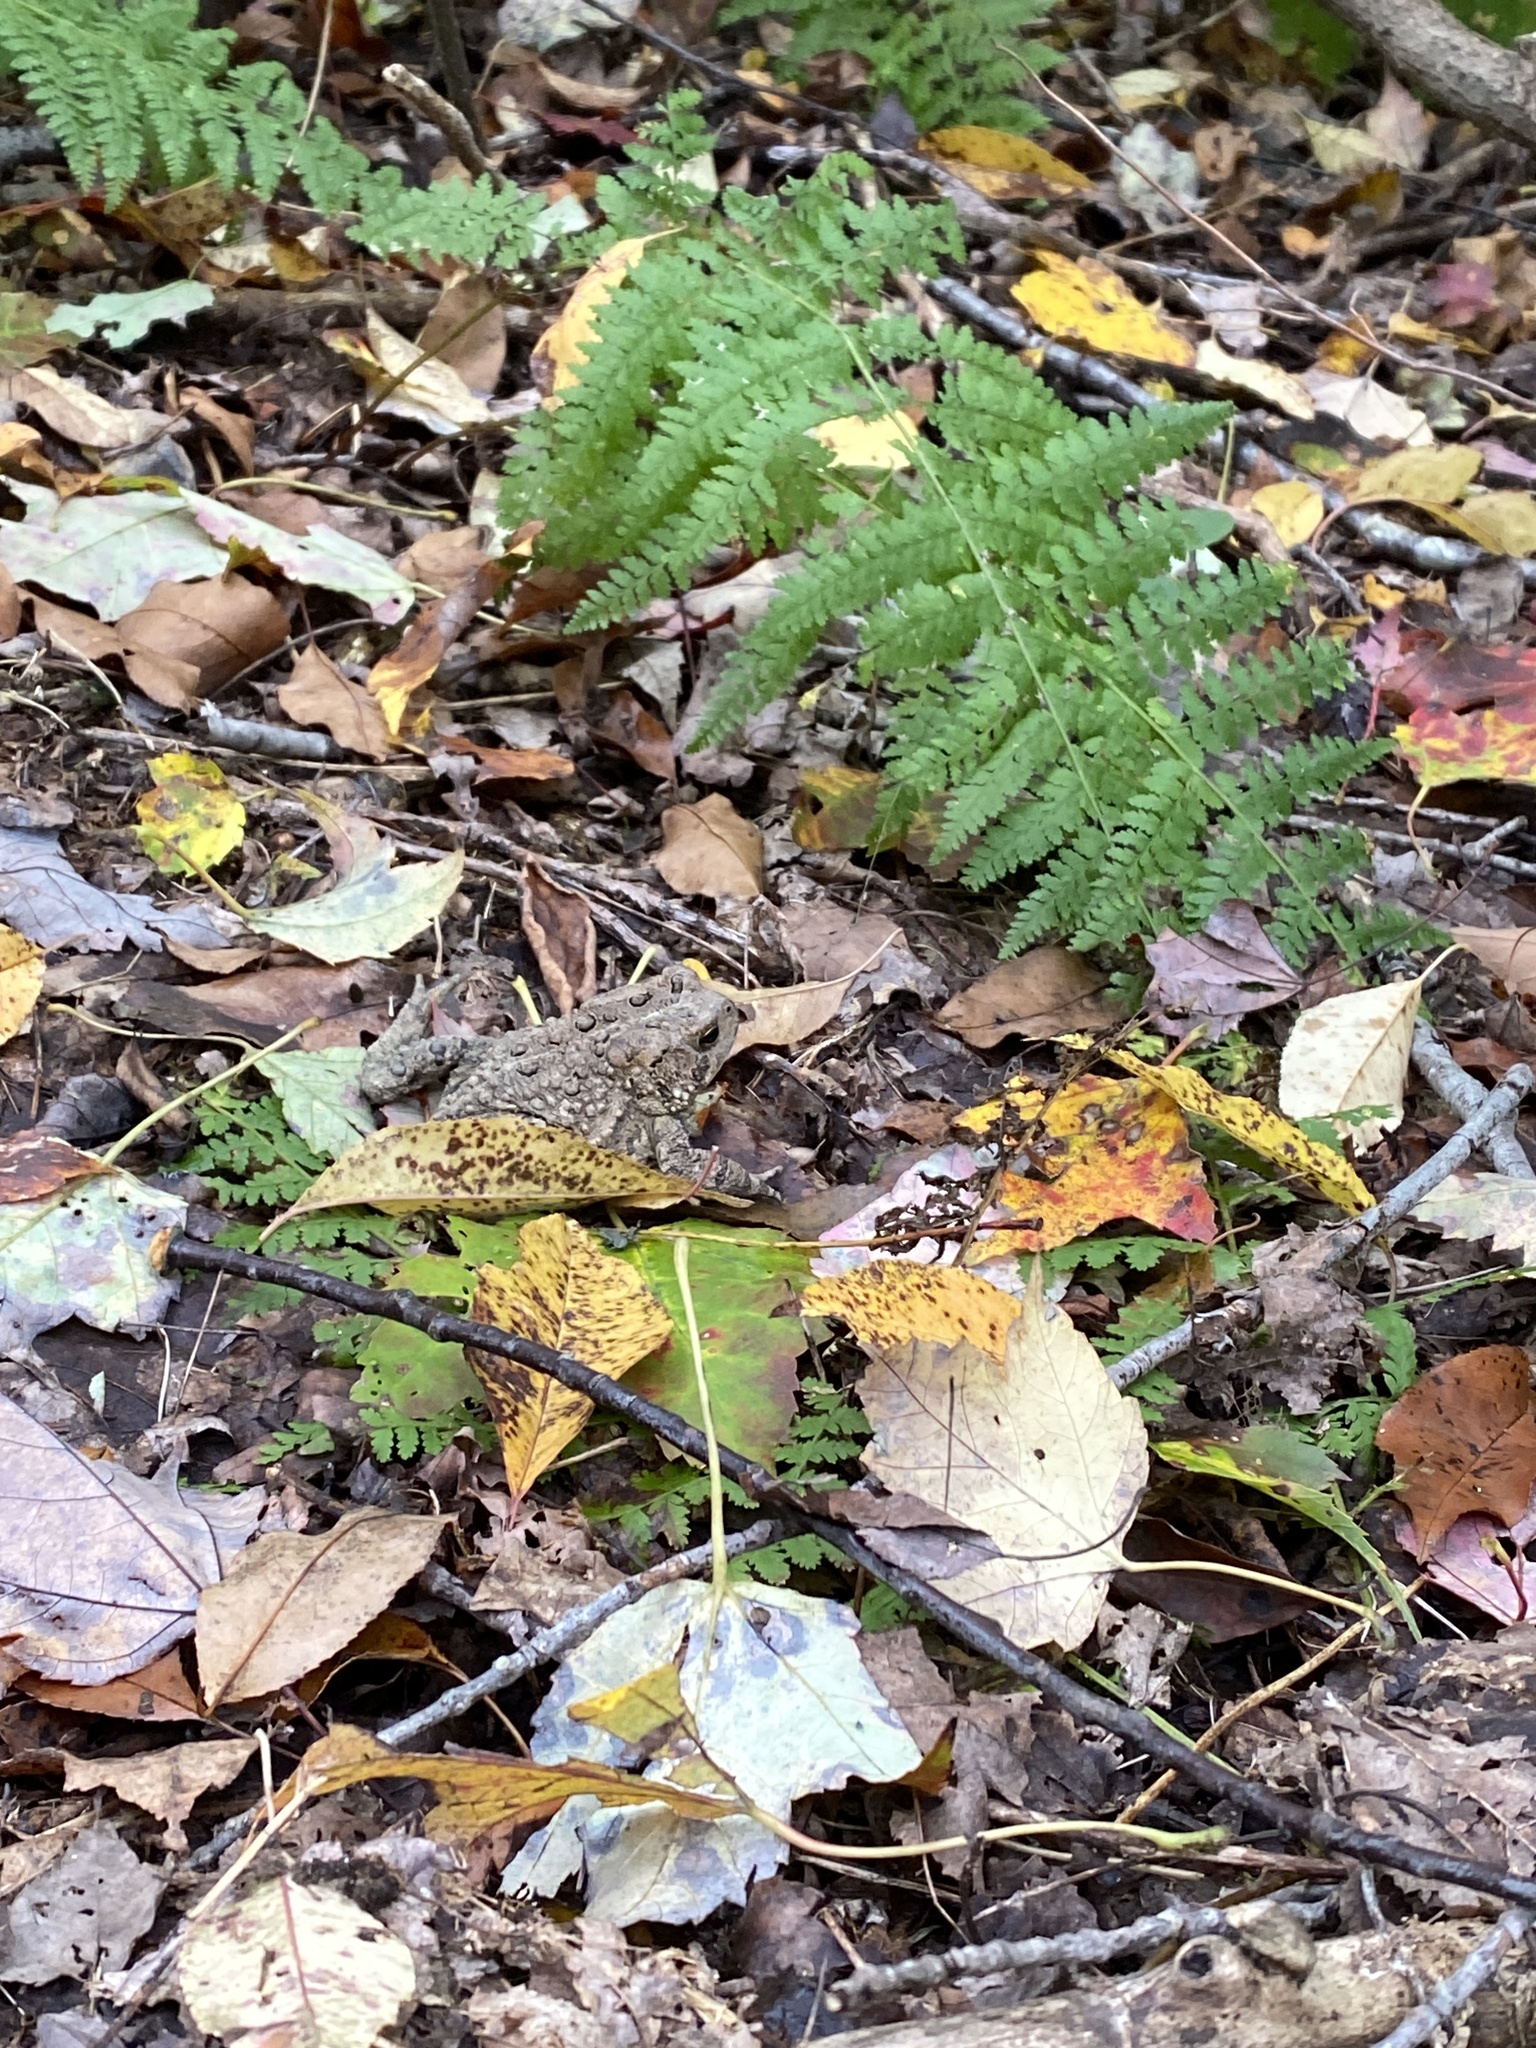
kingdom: Animalia
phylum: Chordata
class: Amphibia
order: Anura
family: Bufonidae
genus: Anaxyrus
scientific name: Anaxyrus americanus
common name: American toad
